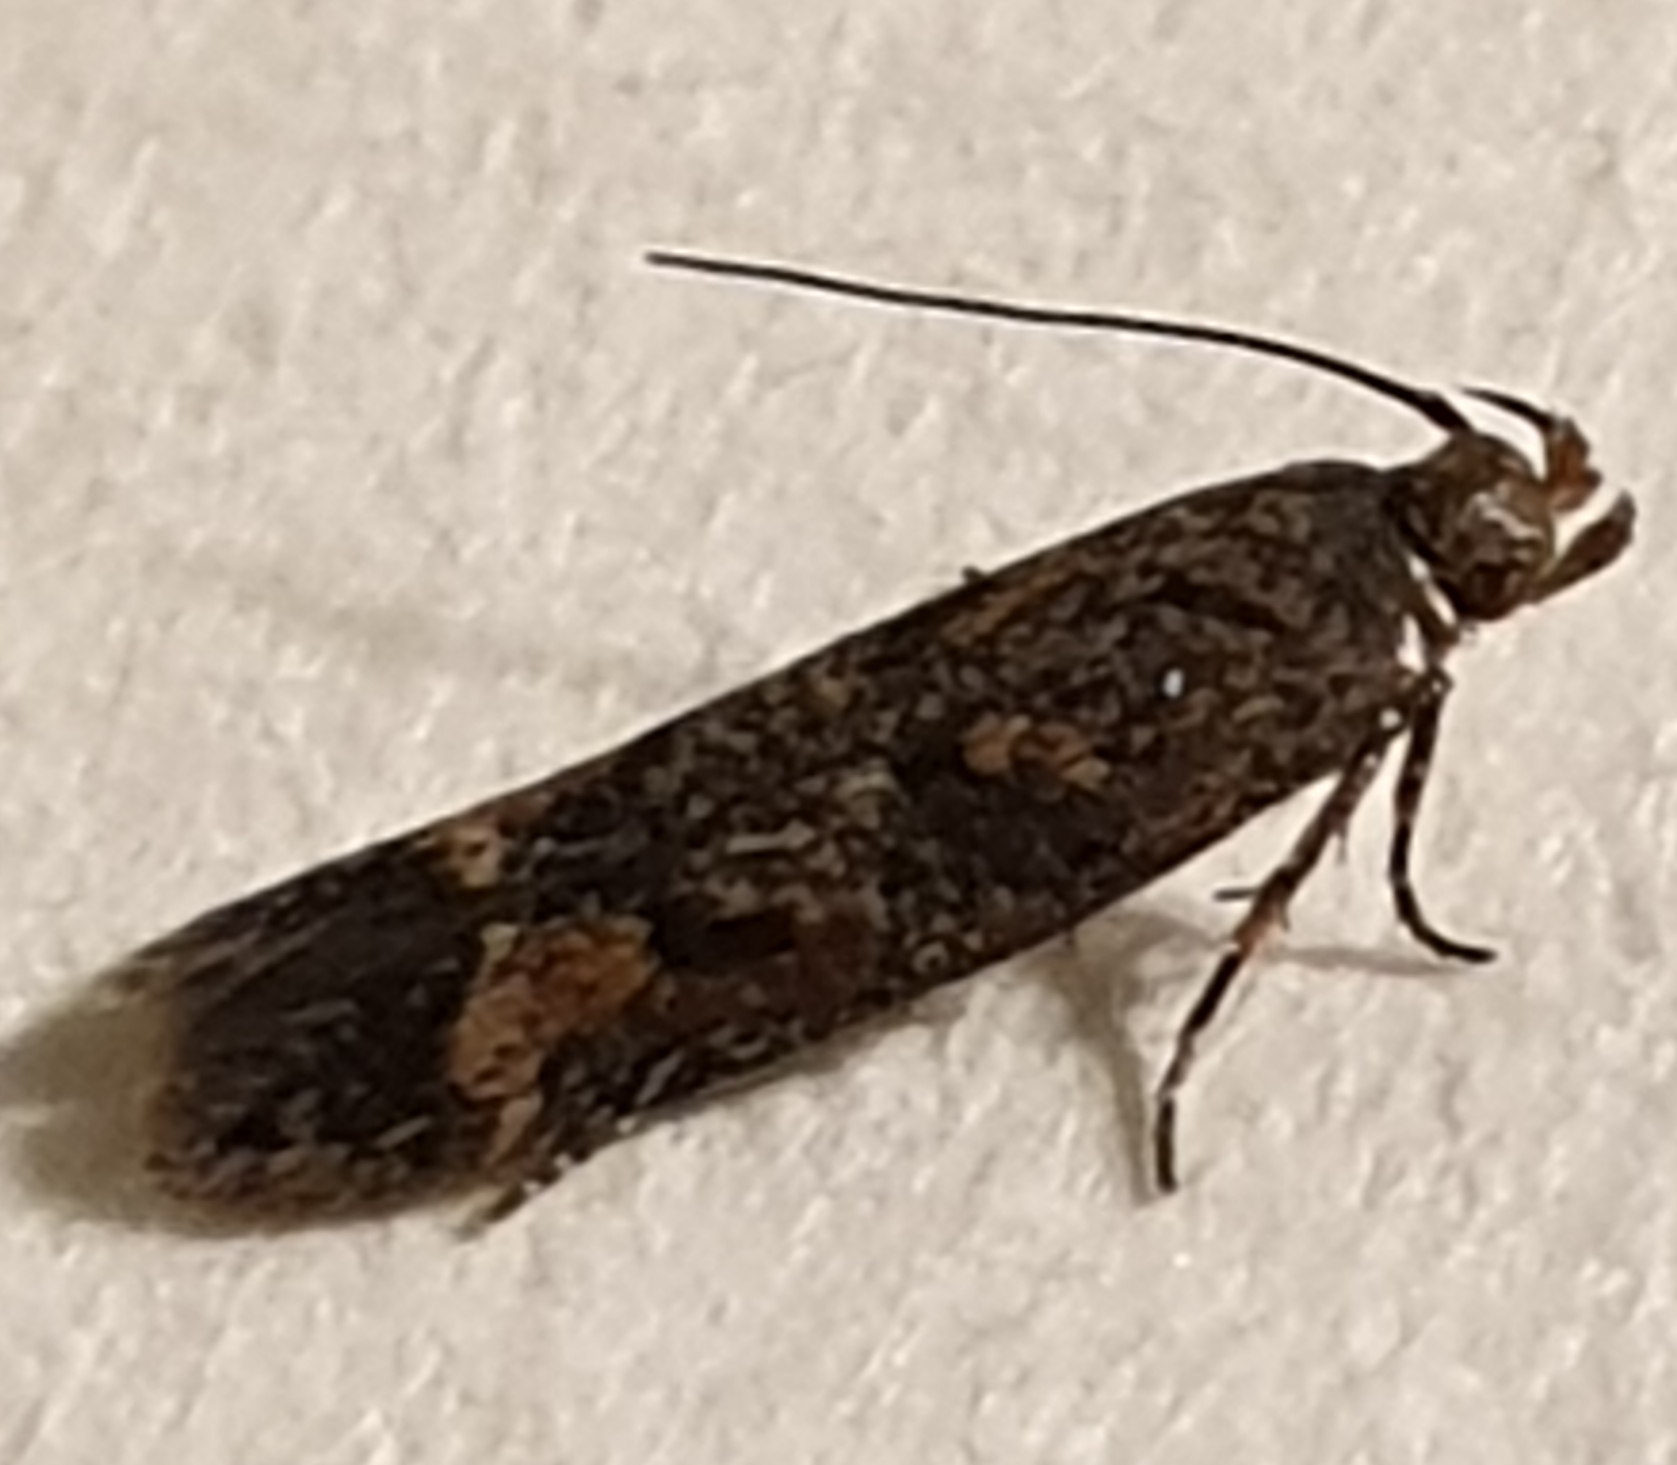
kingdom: Animalia
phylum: Arthropoda
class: Insecta
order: Lepidoptera
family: Gelechiidae
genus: Caryocolum
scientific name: Caryocolum junctella
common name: Confluent groundling
